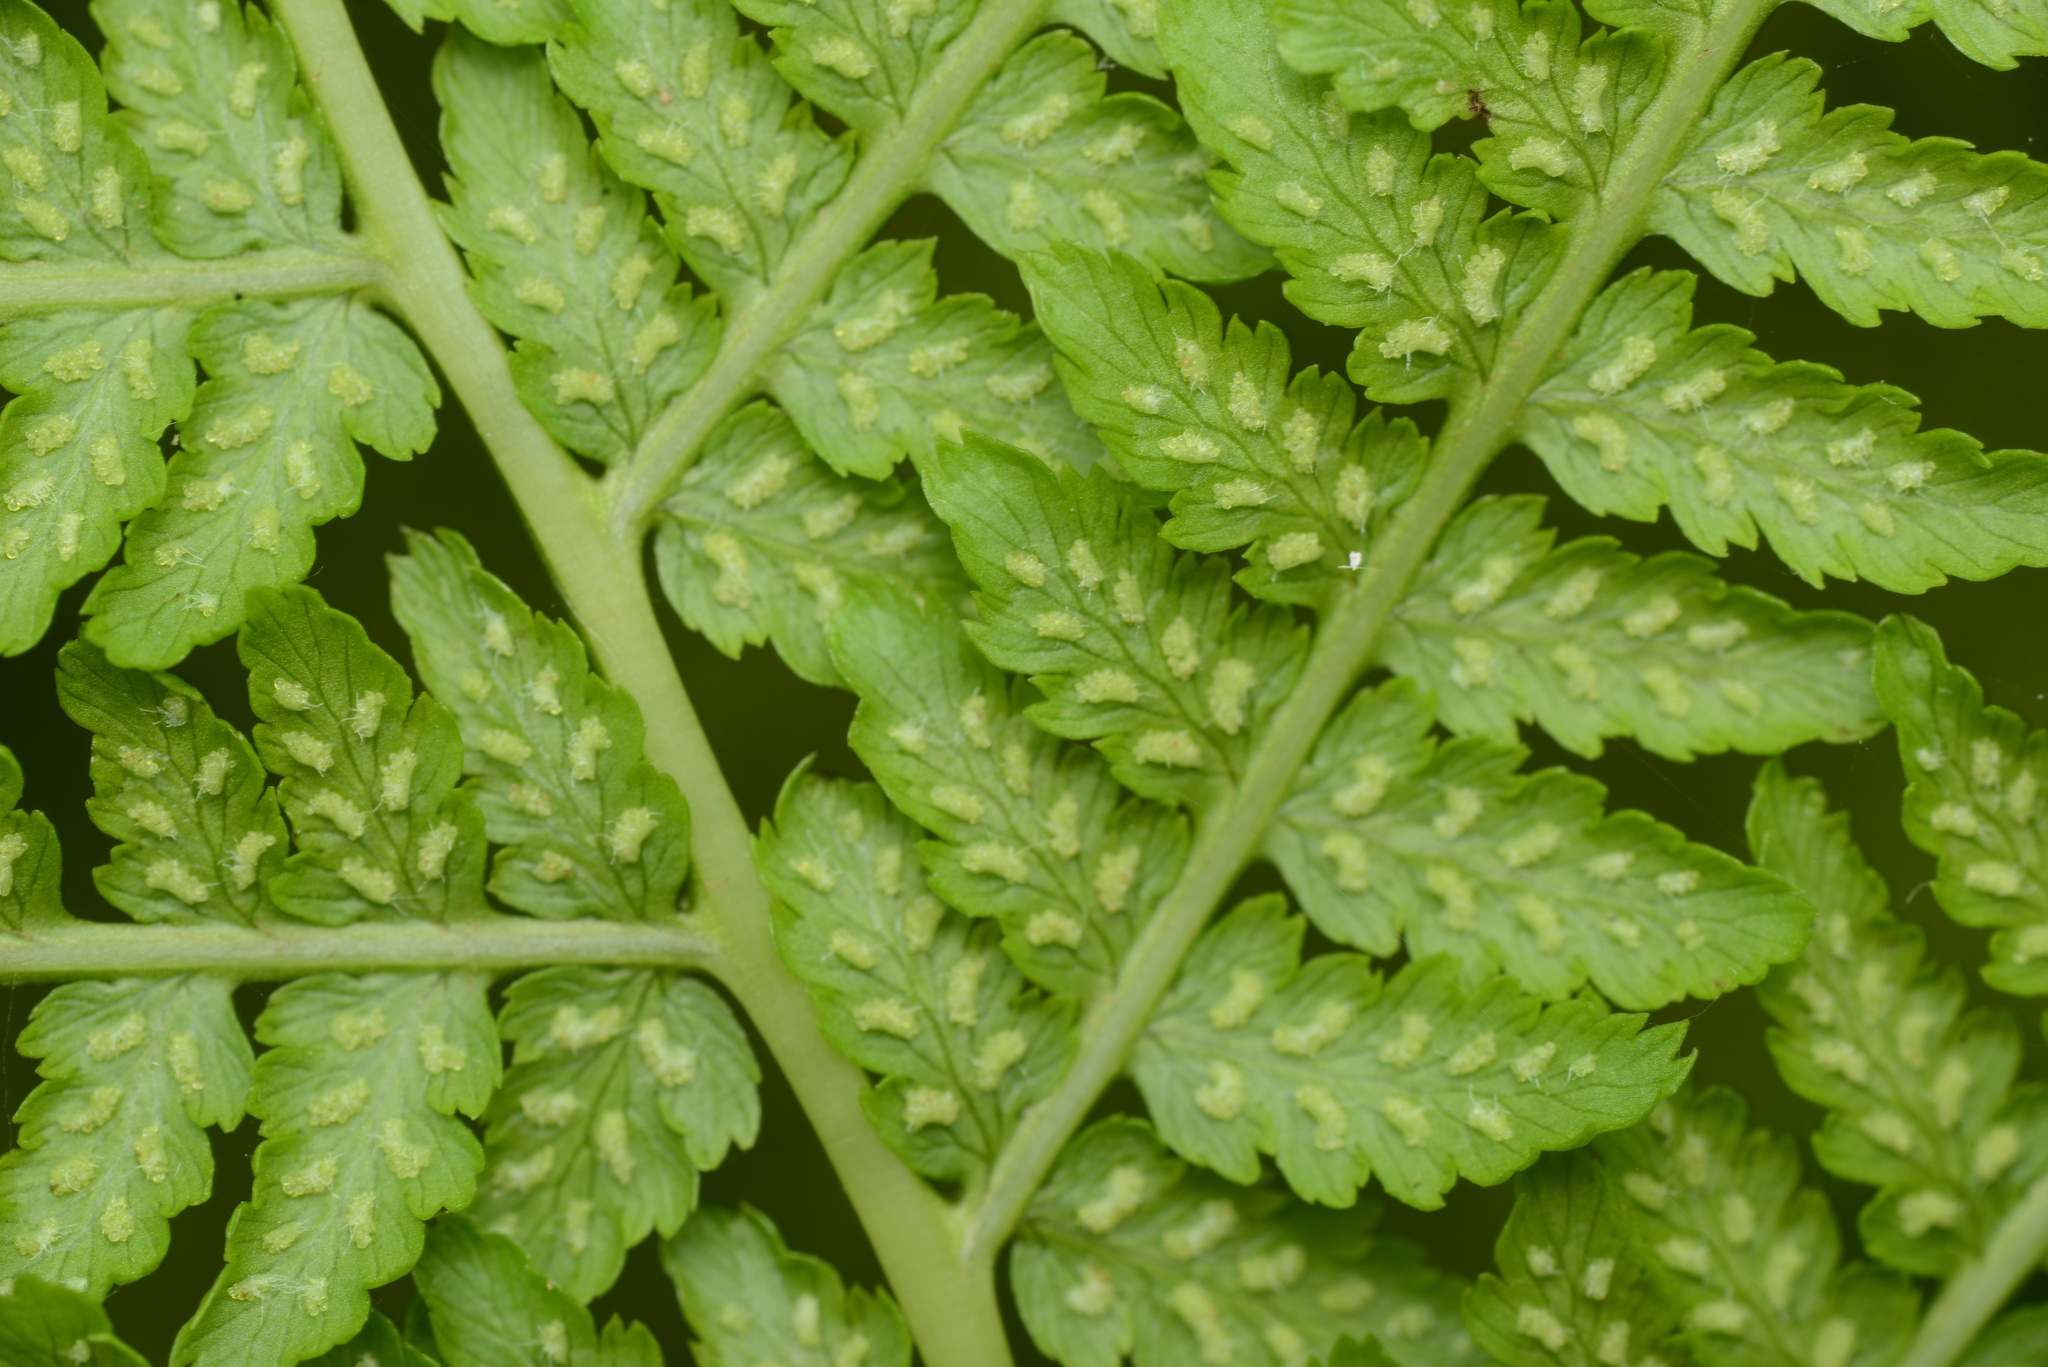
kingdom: Plantae
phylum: Tracheophyta
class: Polypodiopsida
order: Polypodiales
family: Athyriaceae
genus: Athyrium
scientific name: Athyrium filix-femina
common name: Lady fern
